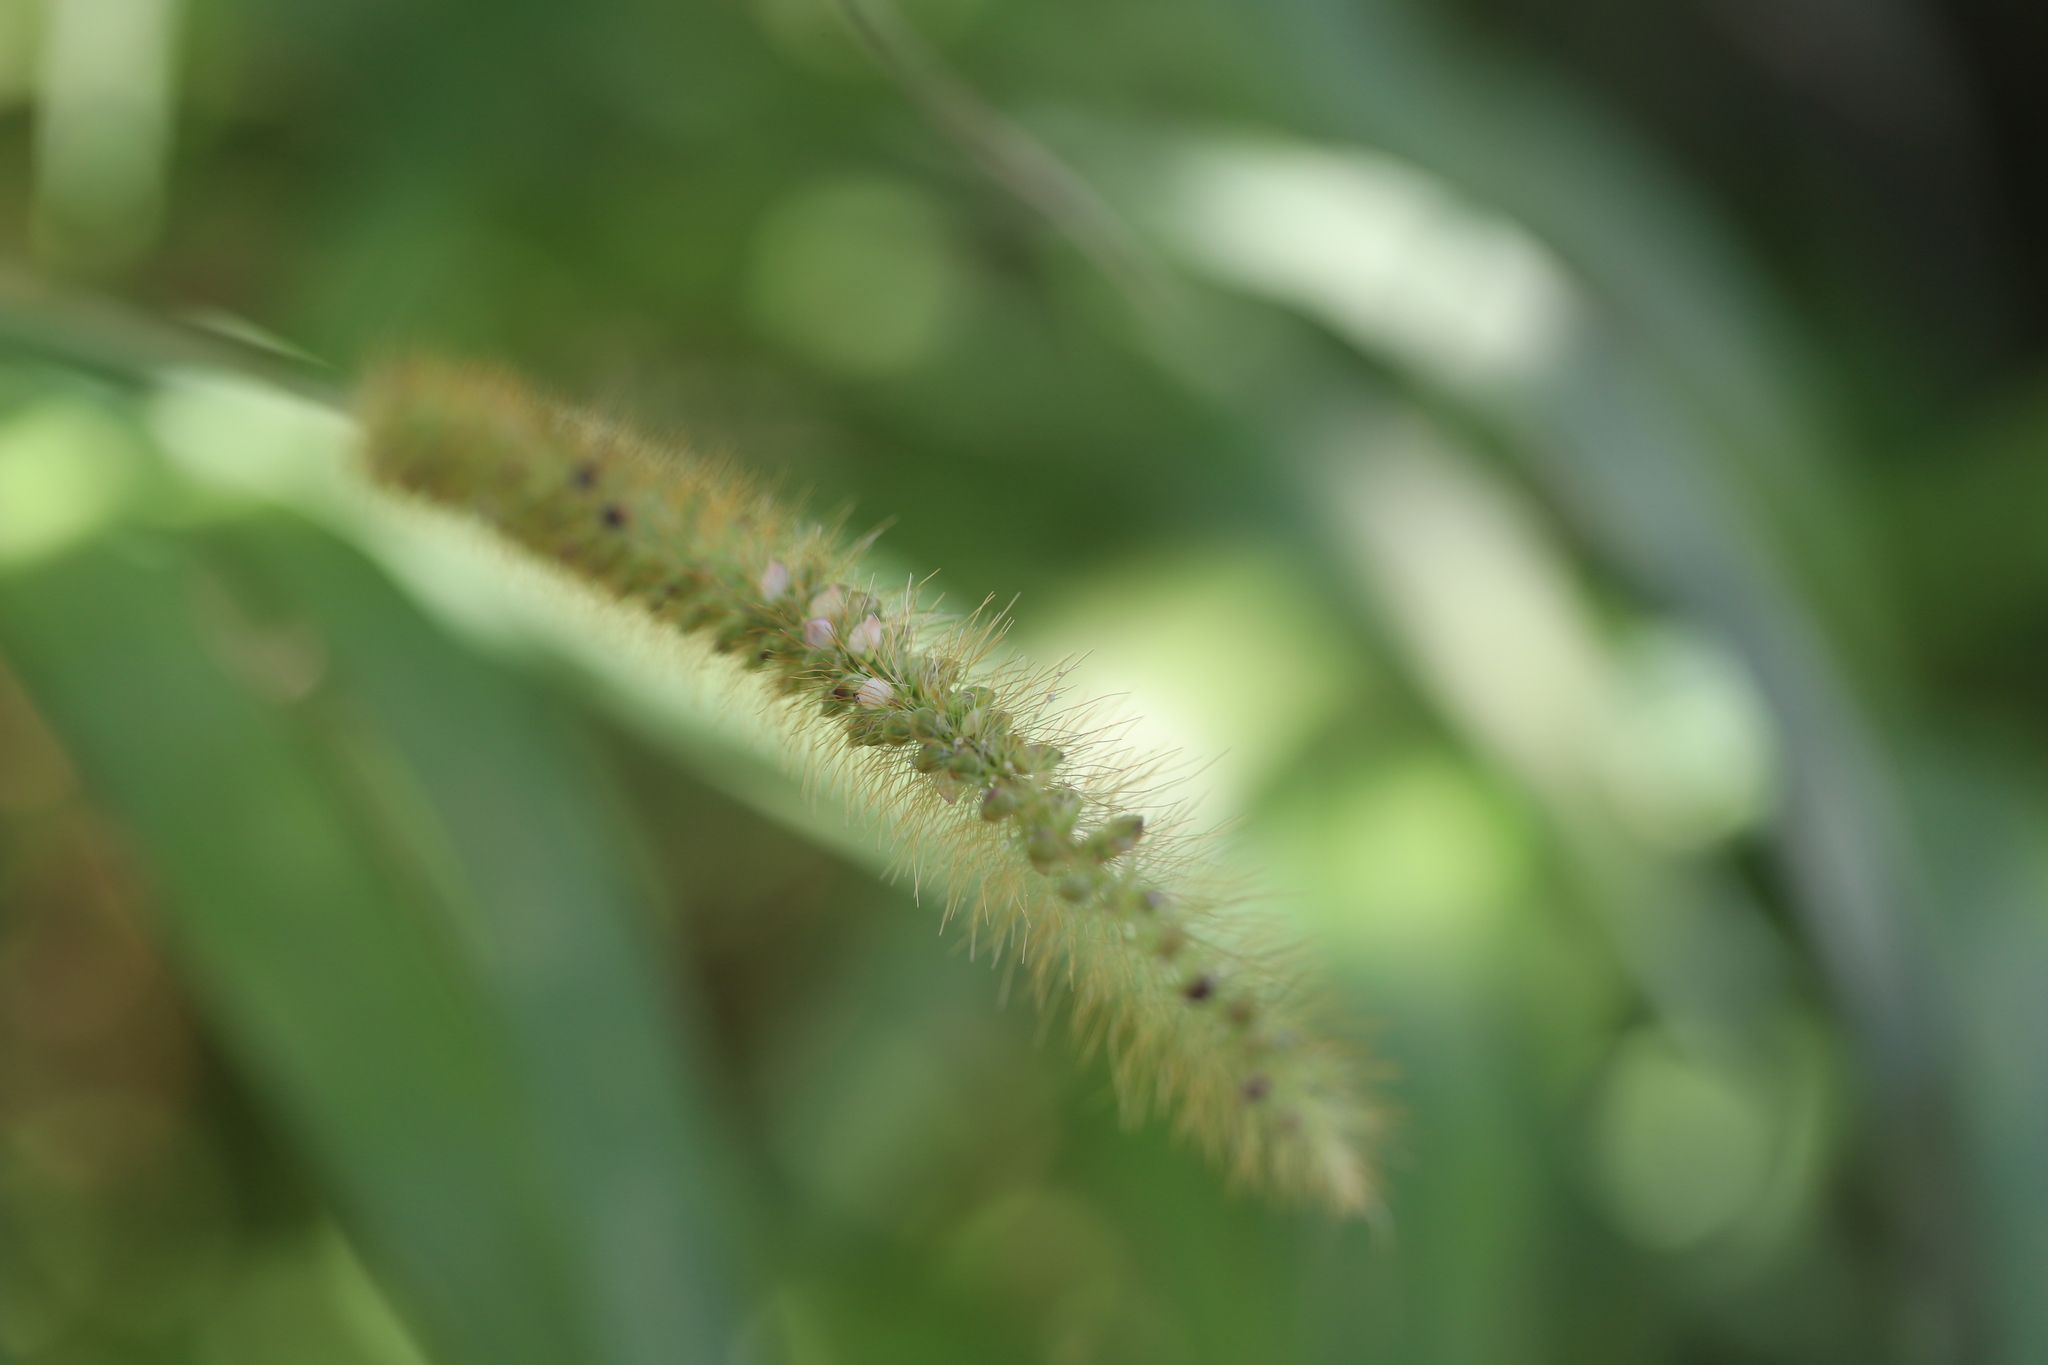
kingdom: Plantae
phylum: Tracheophyta
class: Liliopsida
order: Poales
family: Poaceae
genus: Setaria
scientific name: Setaria pumila
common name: Yellow bristle-grass
